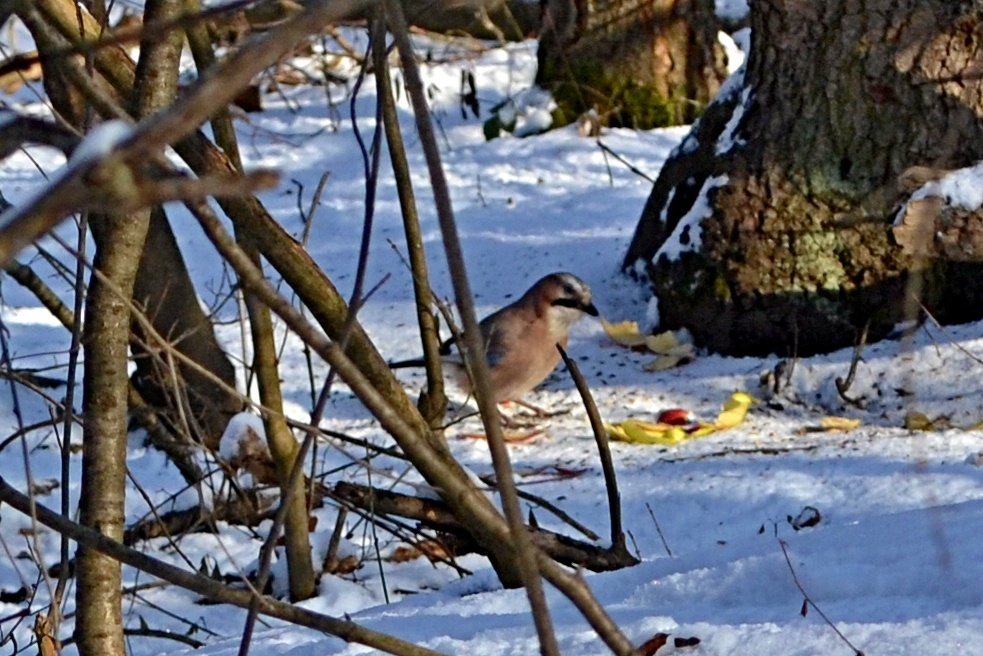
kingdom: Animalia
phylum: Chordata
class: Aves
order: Passeriformes
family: Corvidae
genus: Garrulus
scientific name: Garrulus glandarius
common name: Eurasian jay
